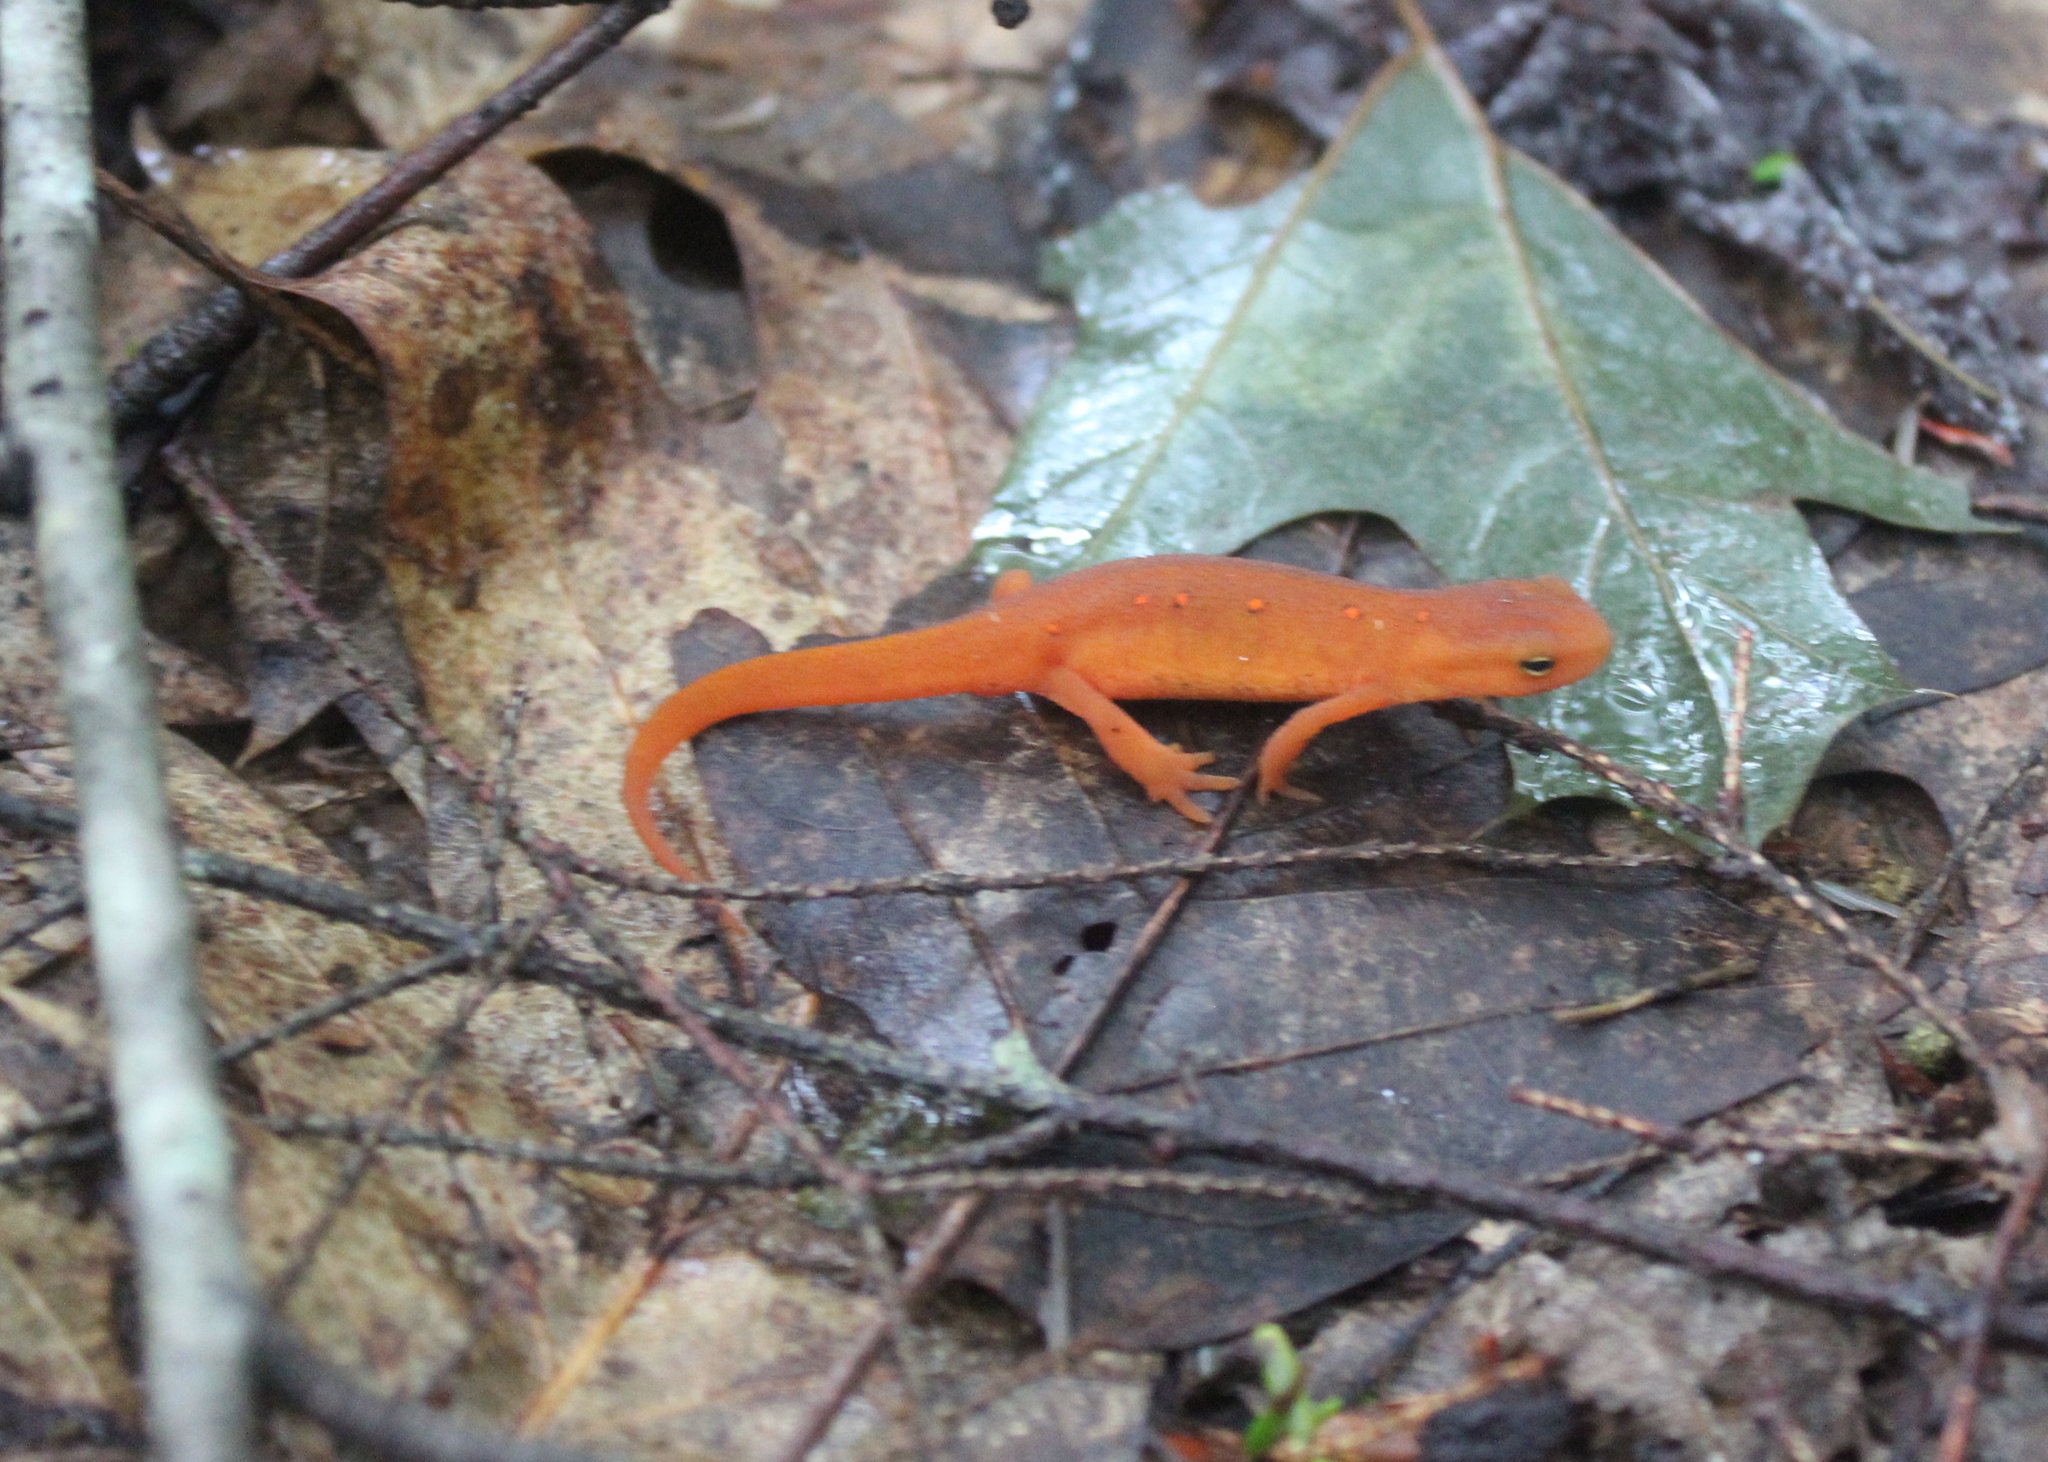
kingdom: Animalia
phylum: Chordata
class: Amphibia
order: Caudata
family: Salamandridae
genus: Notophthalmus
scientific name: Notophthalmus viridescens
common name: Eastern newt
